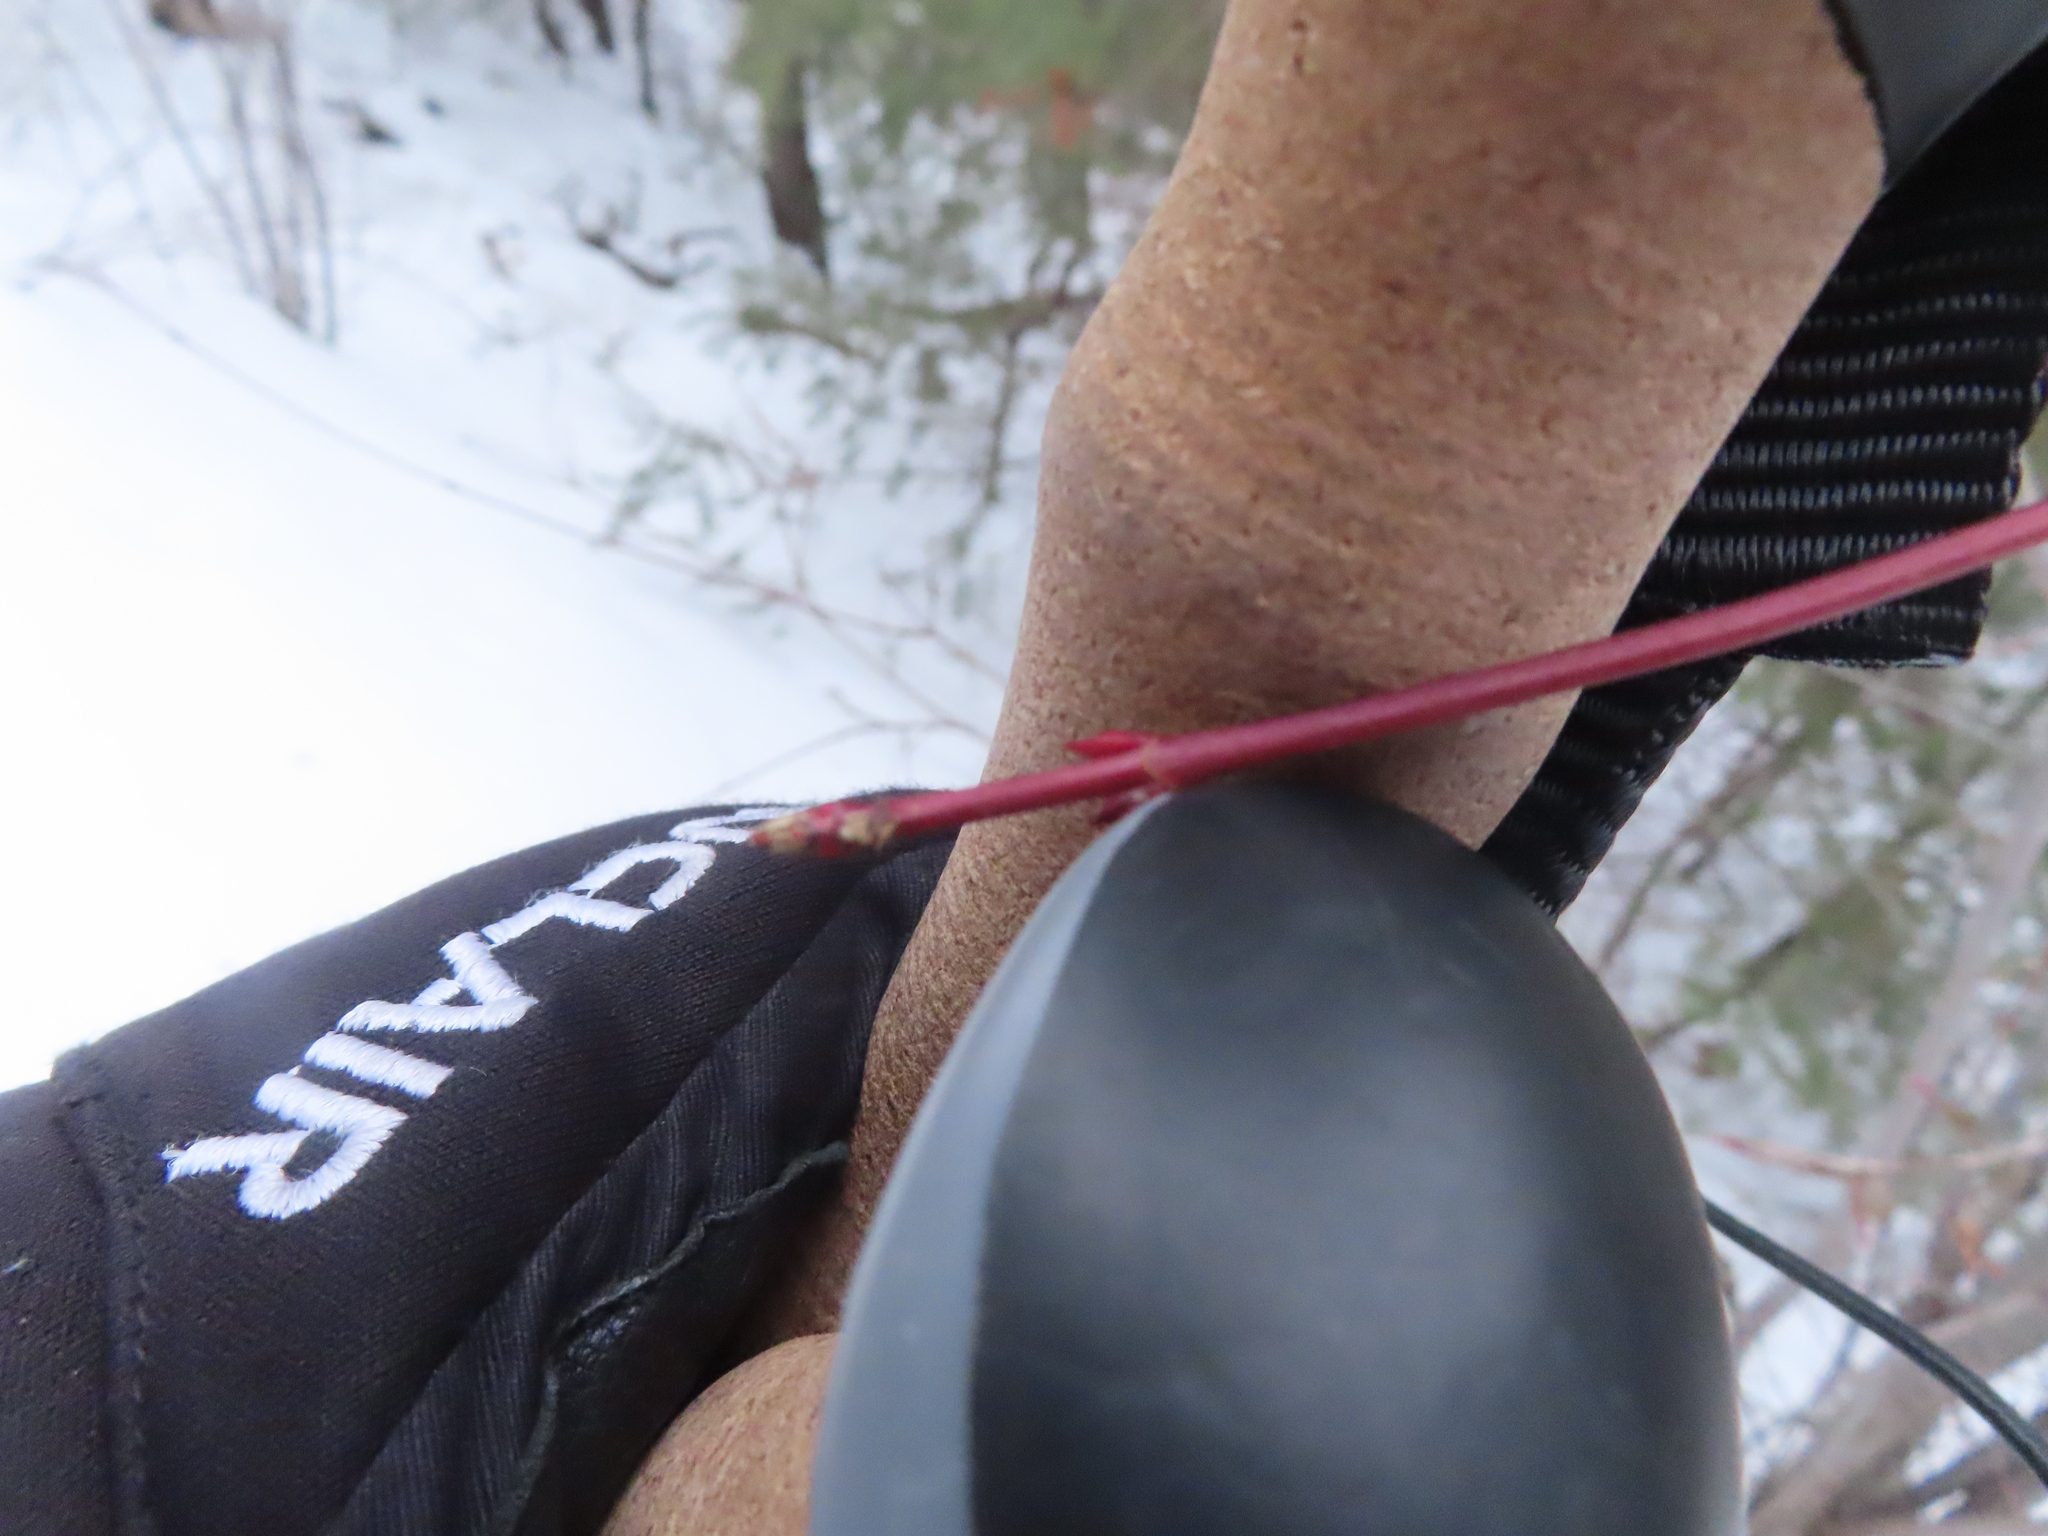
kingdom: Plantae
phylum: Tracheophyta
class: Magnoliopsida
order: Sapindales
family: Sapindaceae
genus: Acer
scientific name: Acer glabrum
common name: Rocky mountain maple
